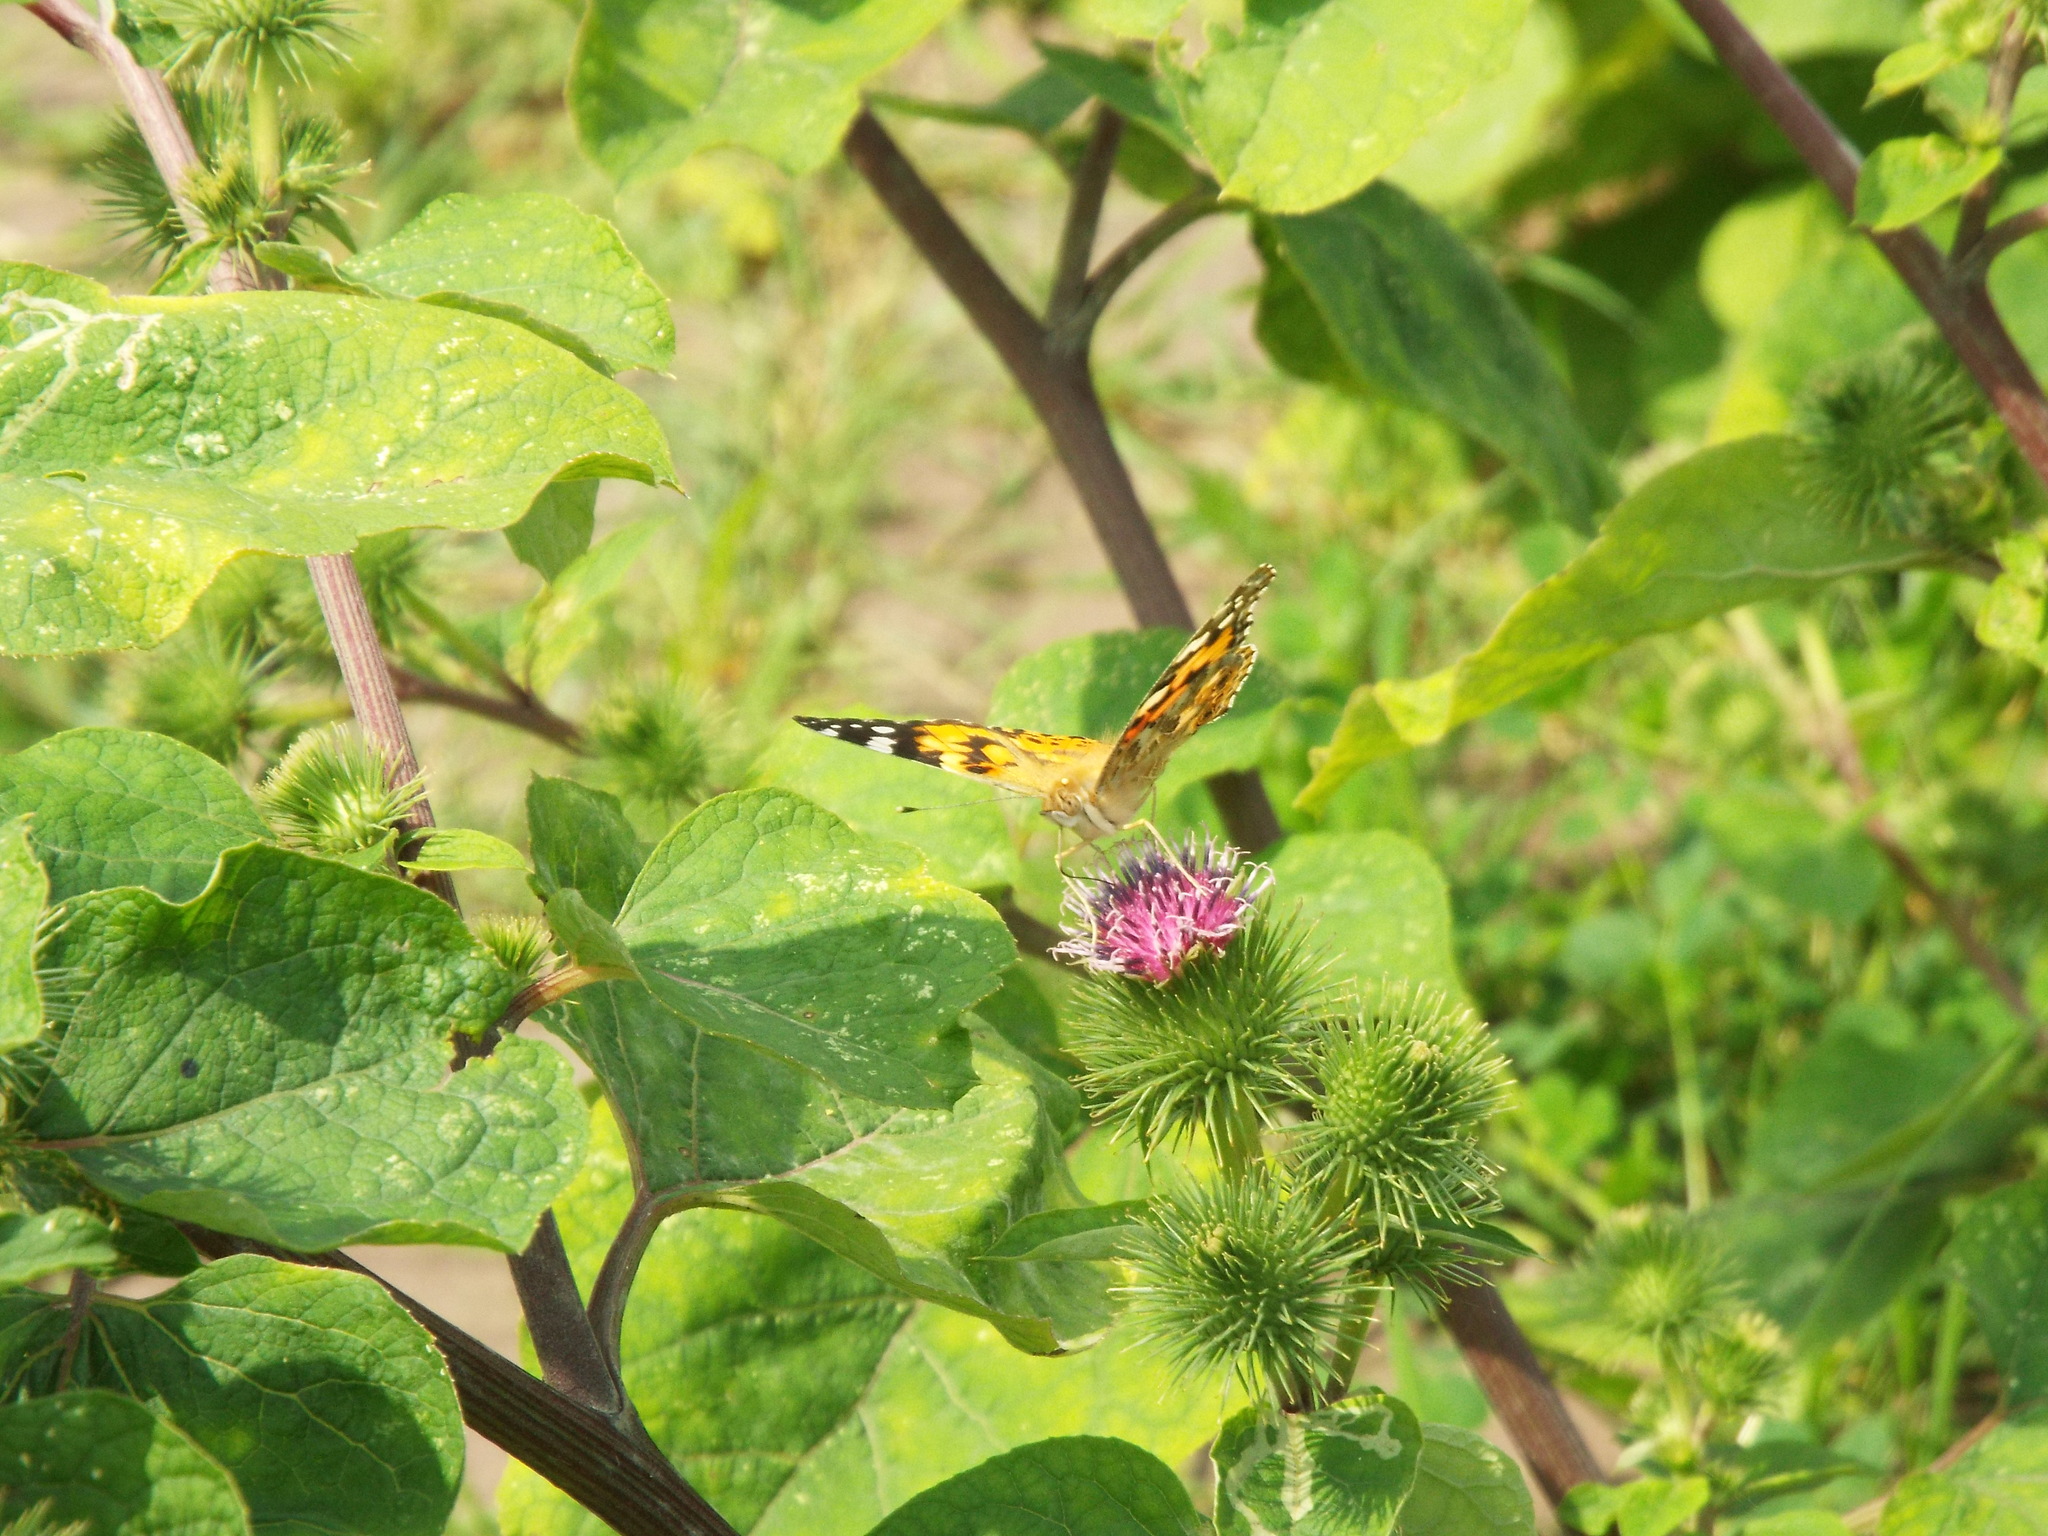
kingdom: Animalia
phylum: Arthropoda
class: Insecta
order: Lepidoptera
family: Nymphalidae
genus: Vanessa
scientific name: Vanessa cardui
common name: Painted lady
